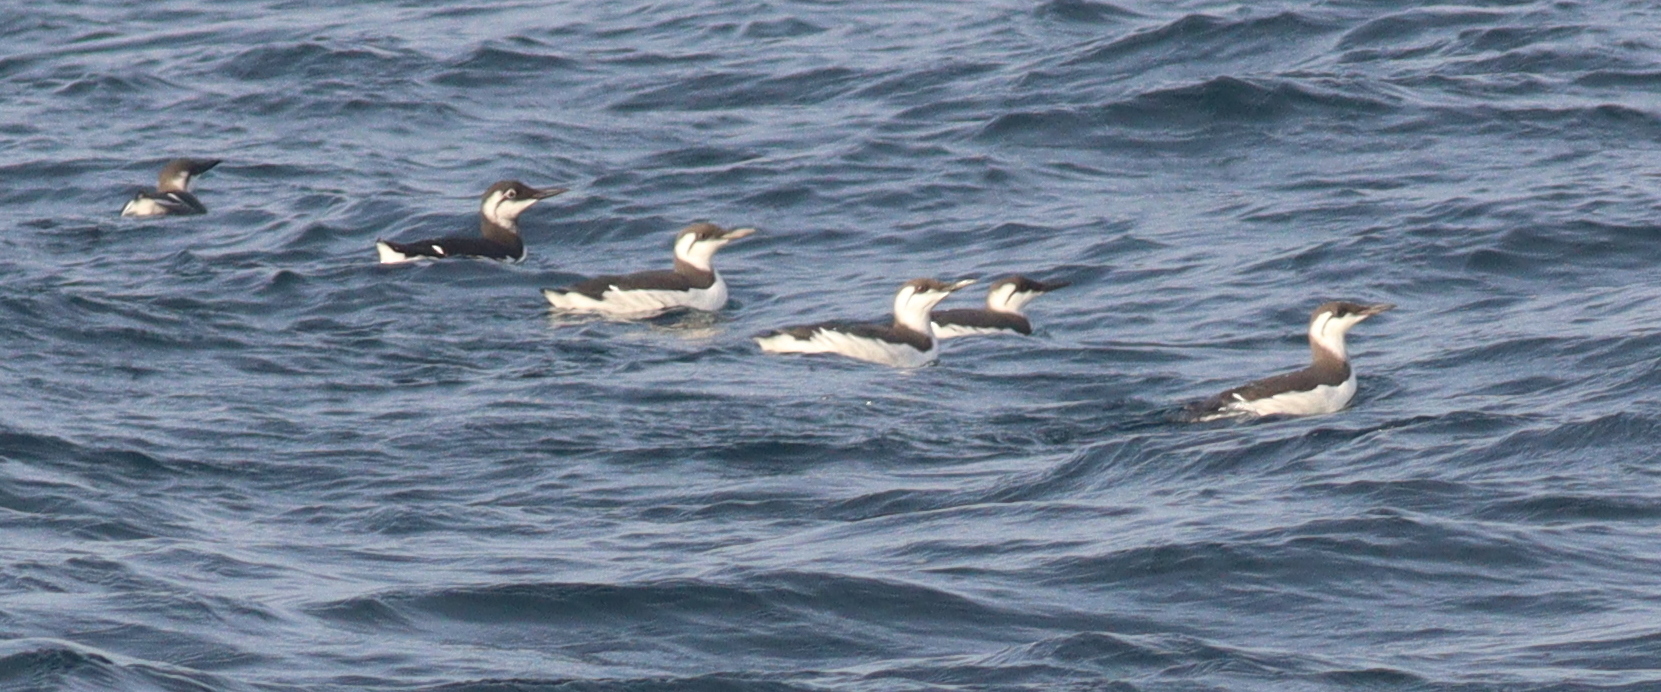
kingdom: Animalia
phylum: Chordata
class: Aves
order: Charadriiformes
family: Alcidae
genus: Uria
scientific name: Uria aalge
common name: Common murre
